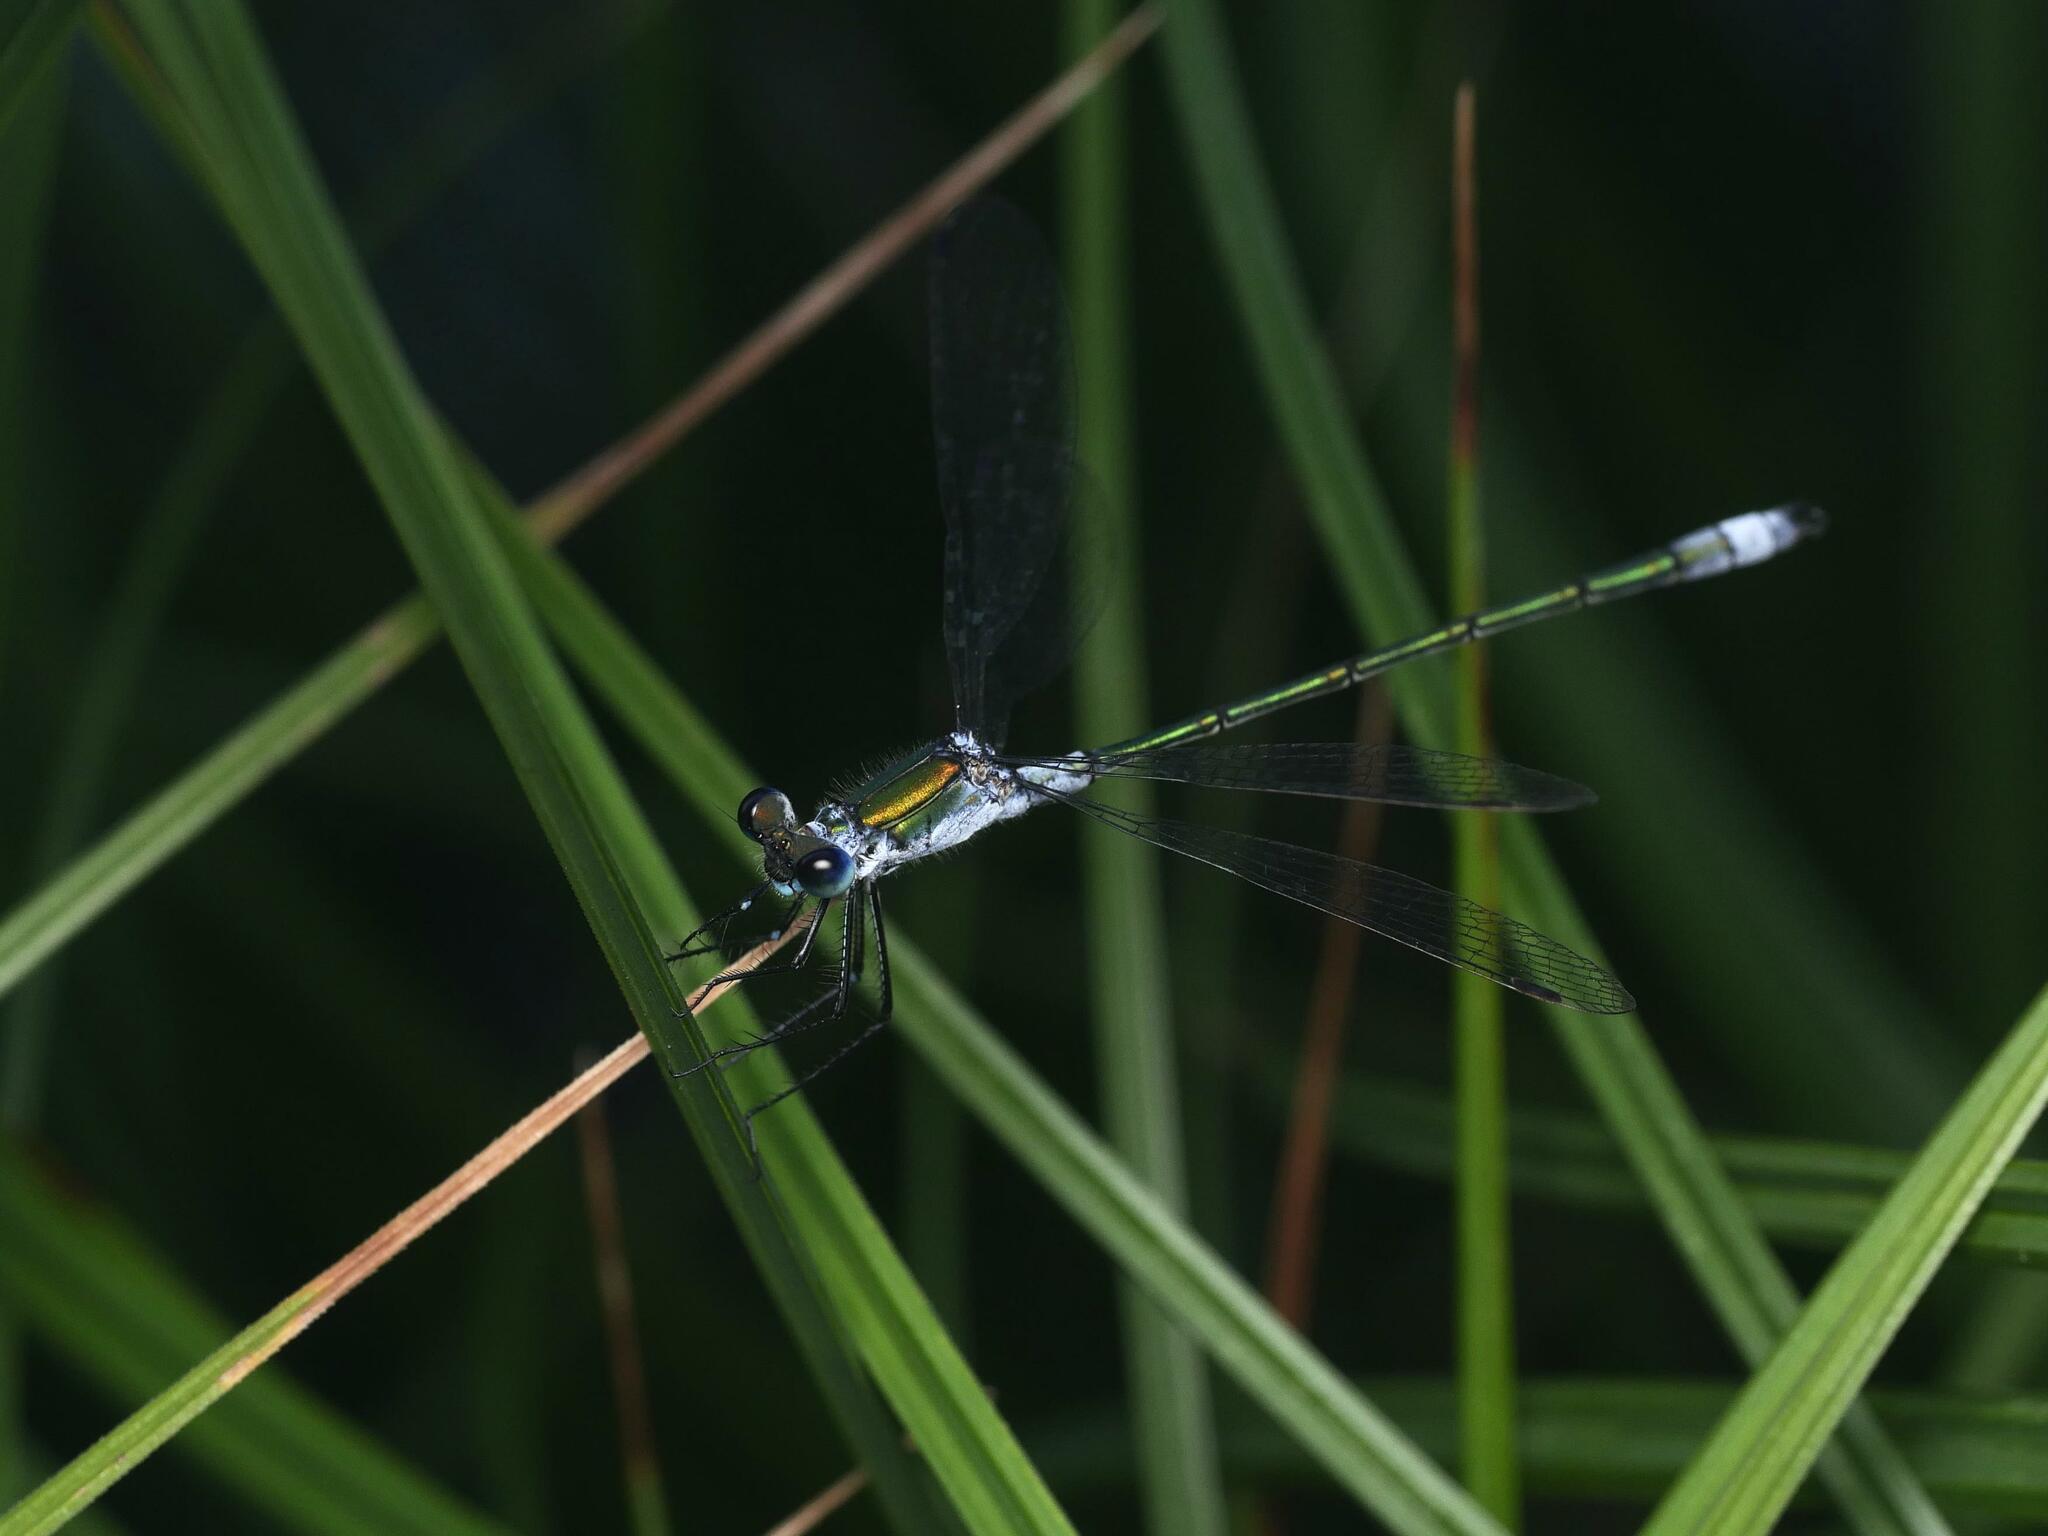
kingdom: Animalia
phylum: Arthropoda
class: Insecta
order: Odonata
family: Lestidae
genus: Lestes
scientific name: Lestes sponsa
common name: Common spreadwing
